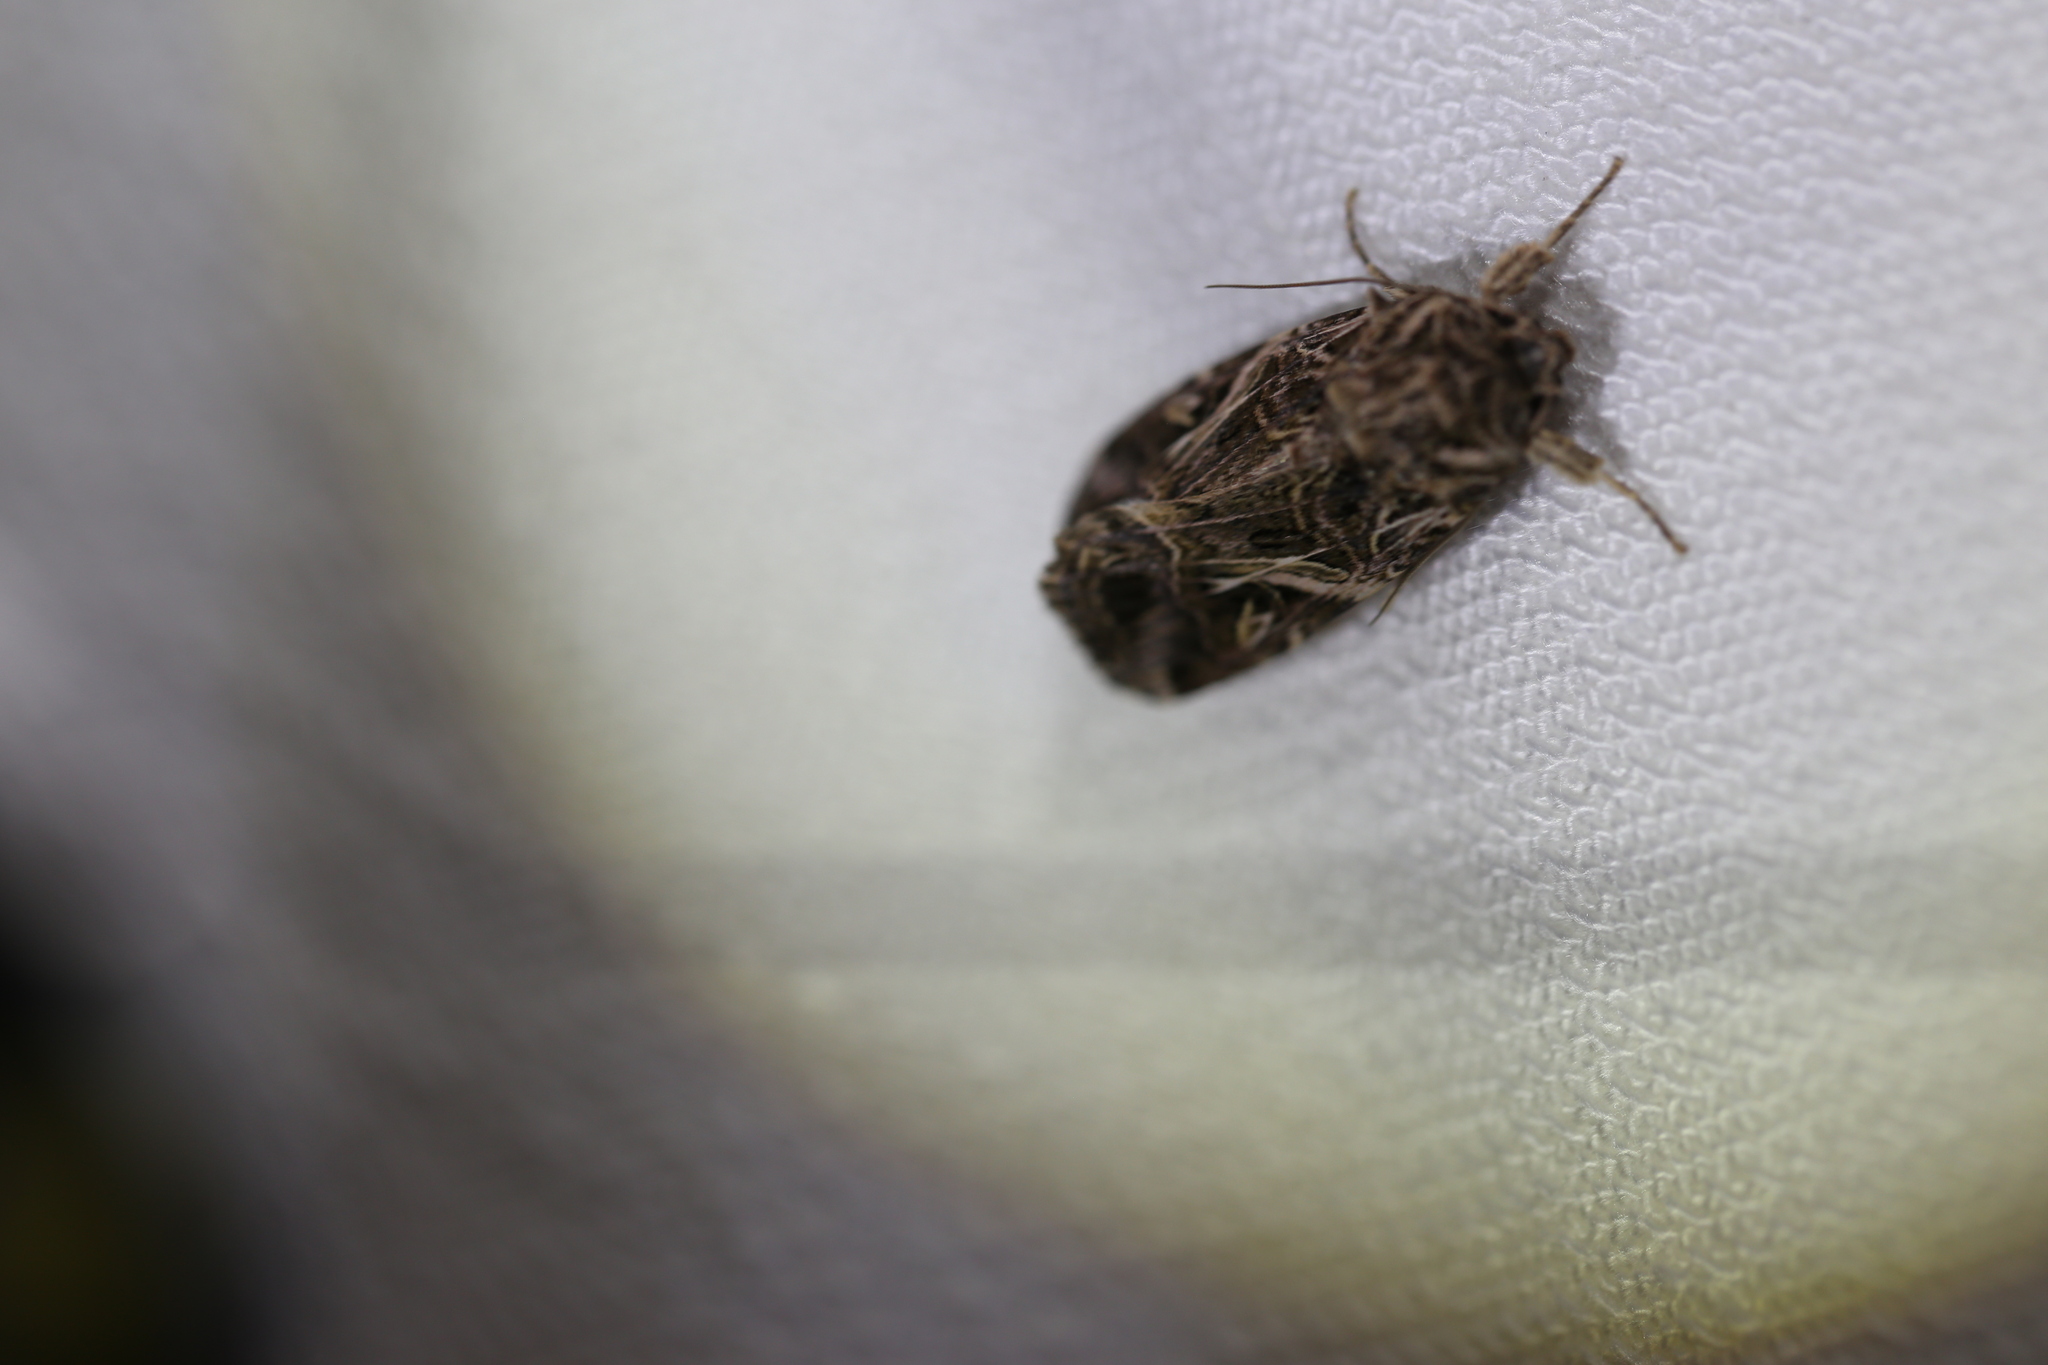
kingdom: Animalia
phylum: Arthropoda
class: Insecta
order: Lepidoptera
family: Noctuidae
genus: Spodoptera
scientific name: Spodoptera litura
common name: Asian cotton leafworm
